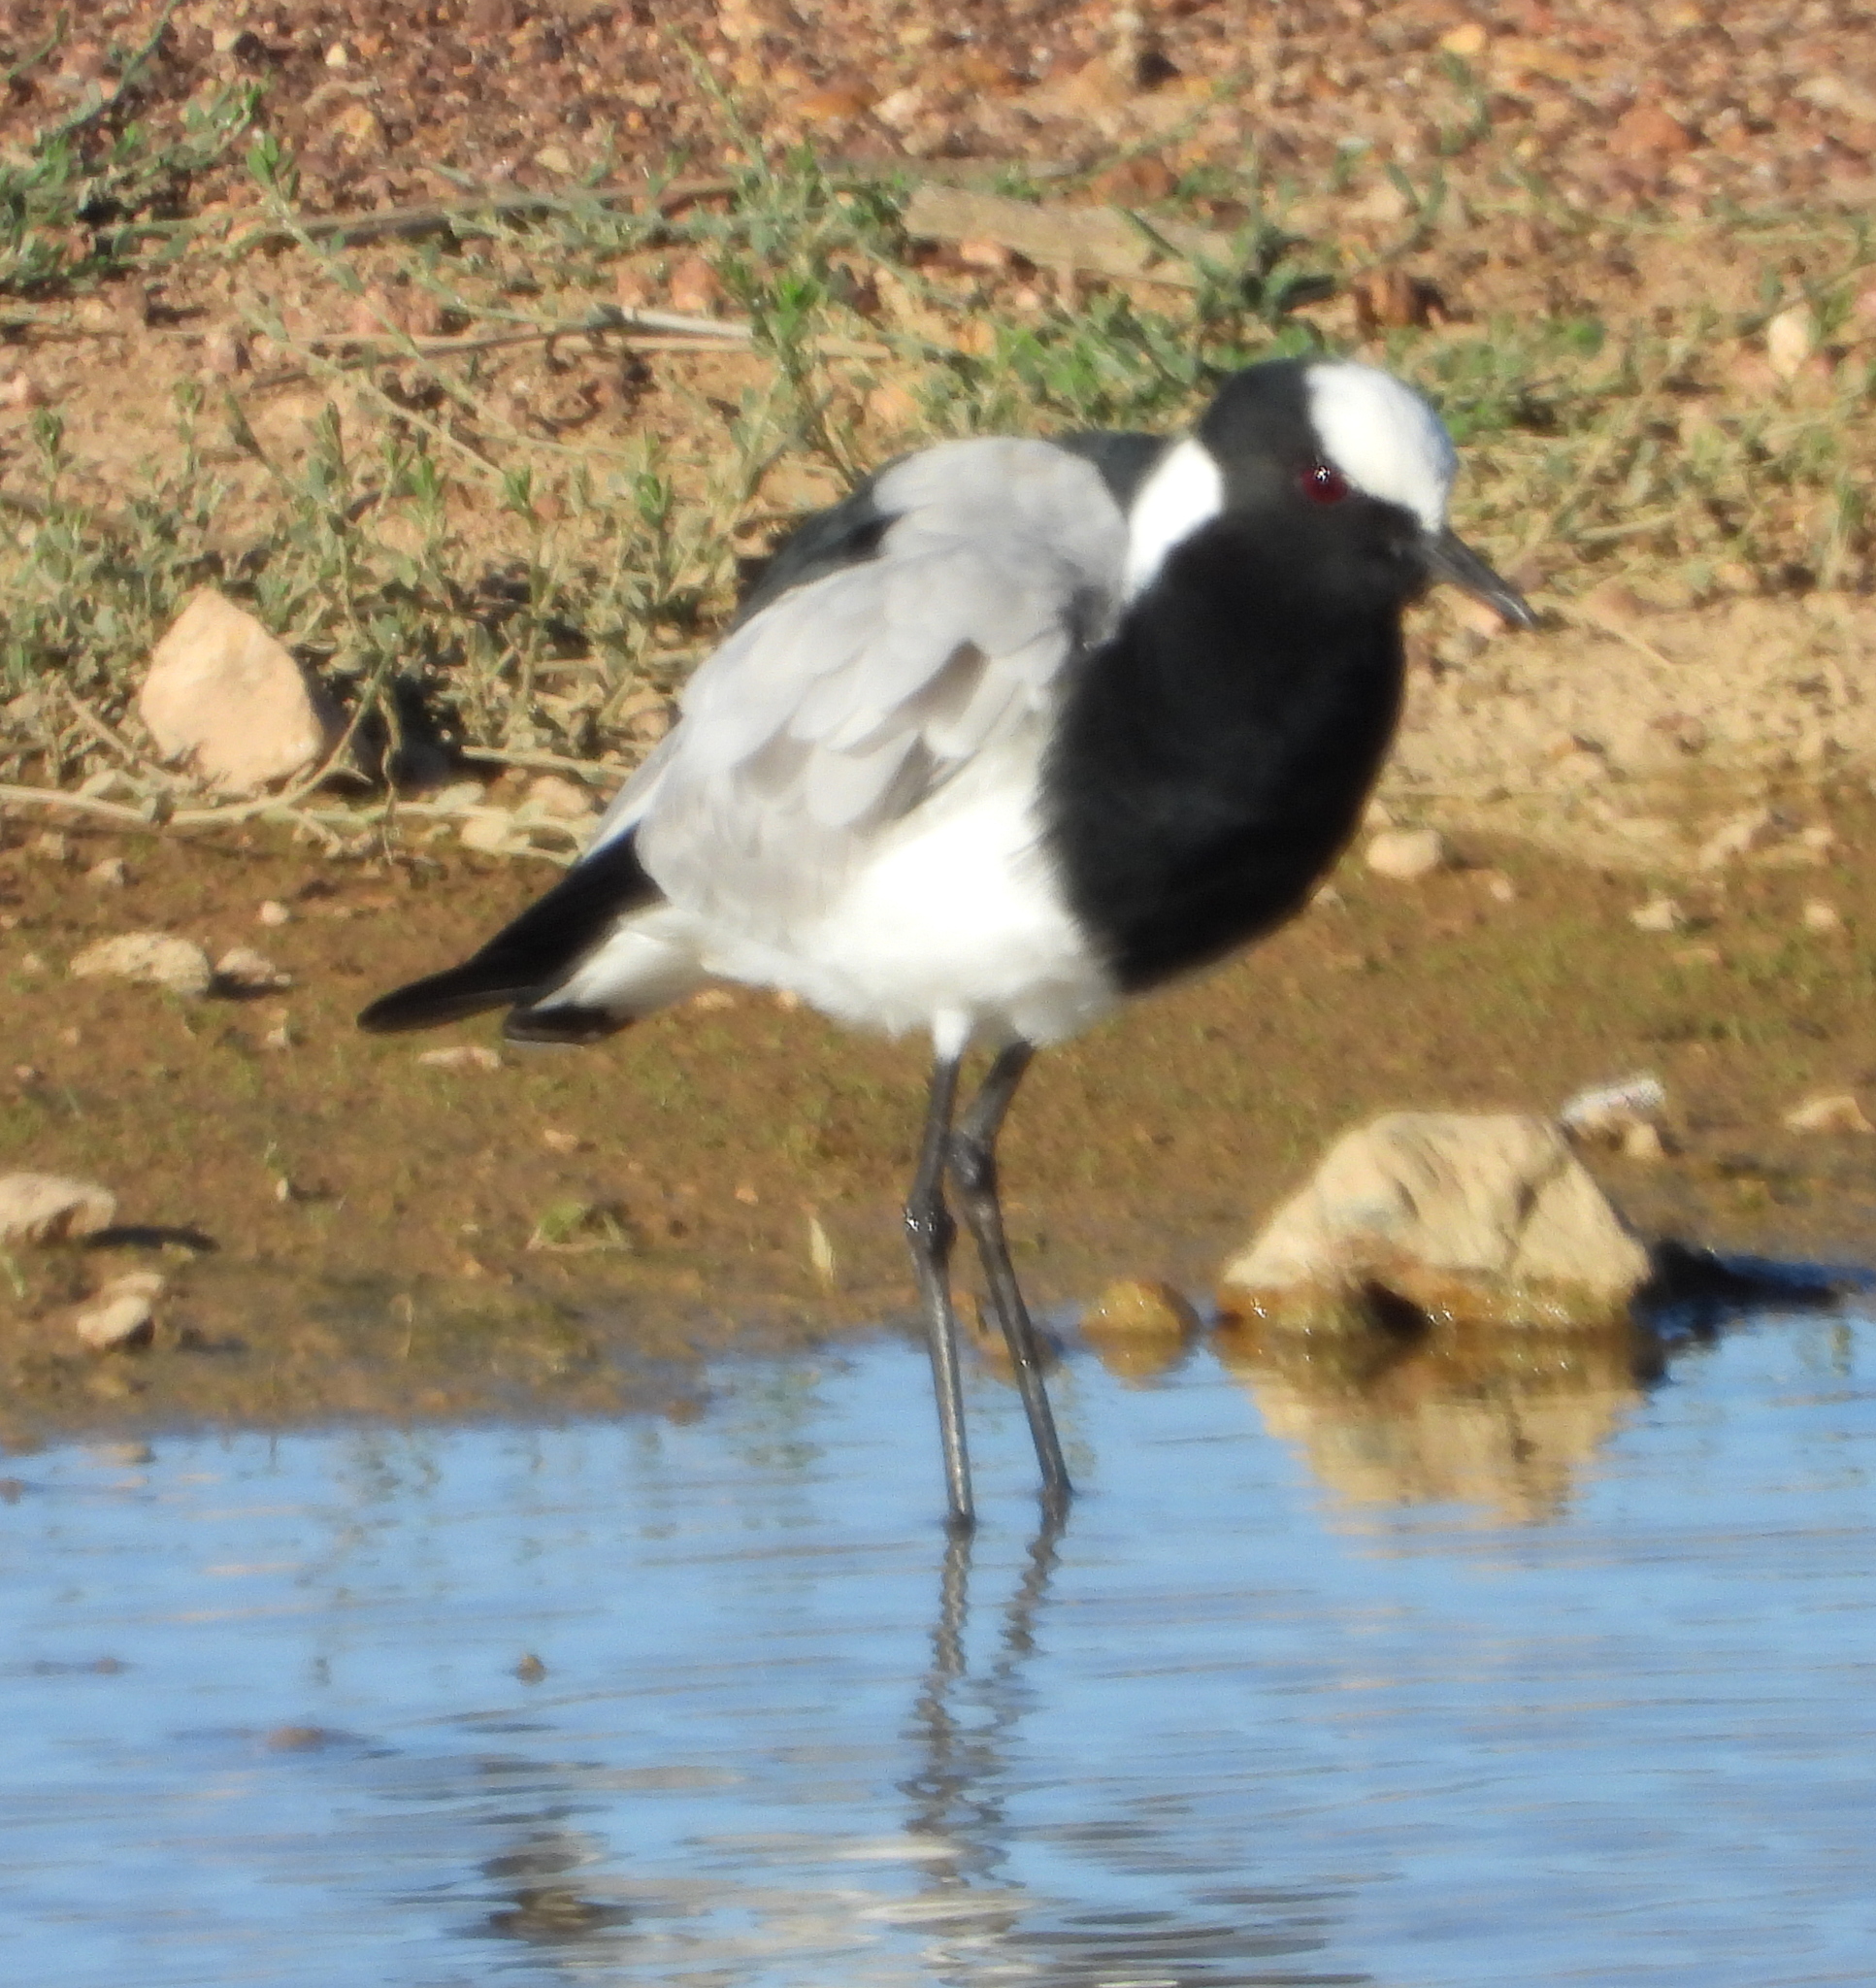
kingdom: Animalia
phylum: Chordata
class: Aves
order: Charadriiformes
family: Charadriidae
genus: Vanellus
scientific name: Vanellus armatus
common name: Blacksmith lapwing
